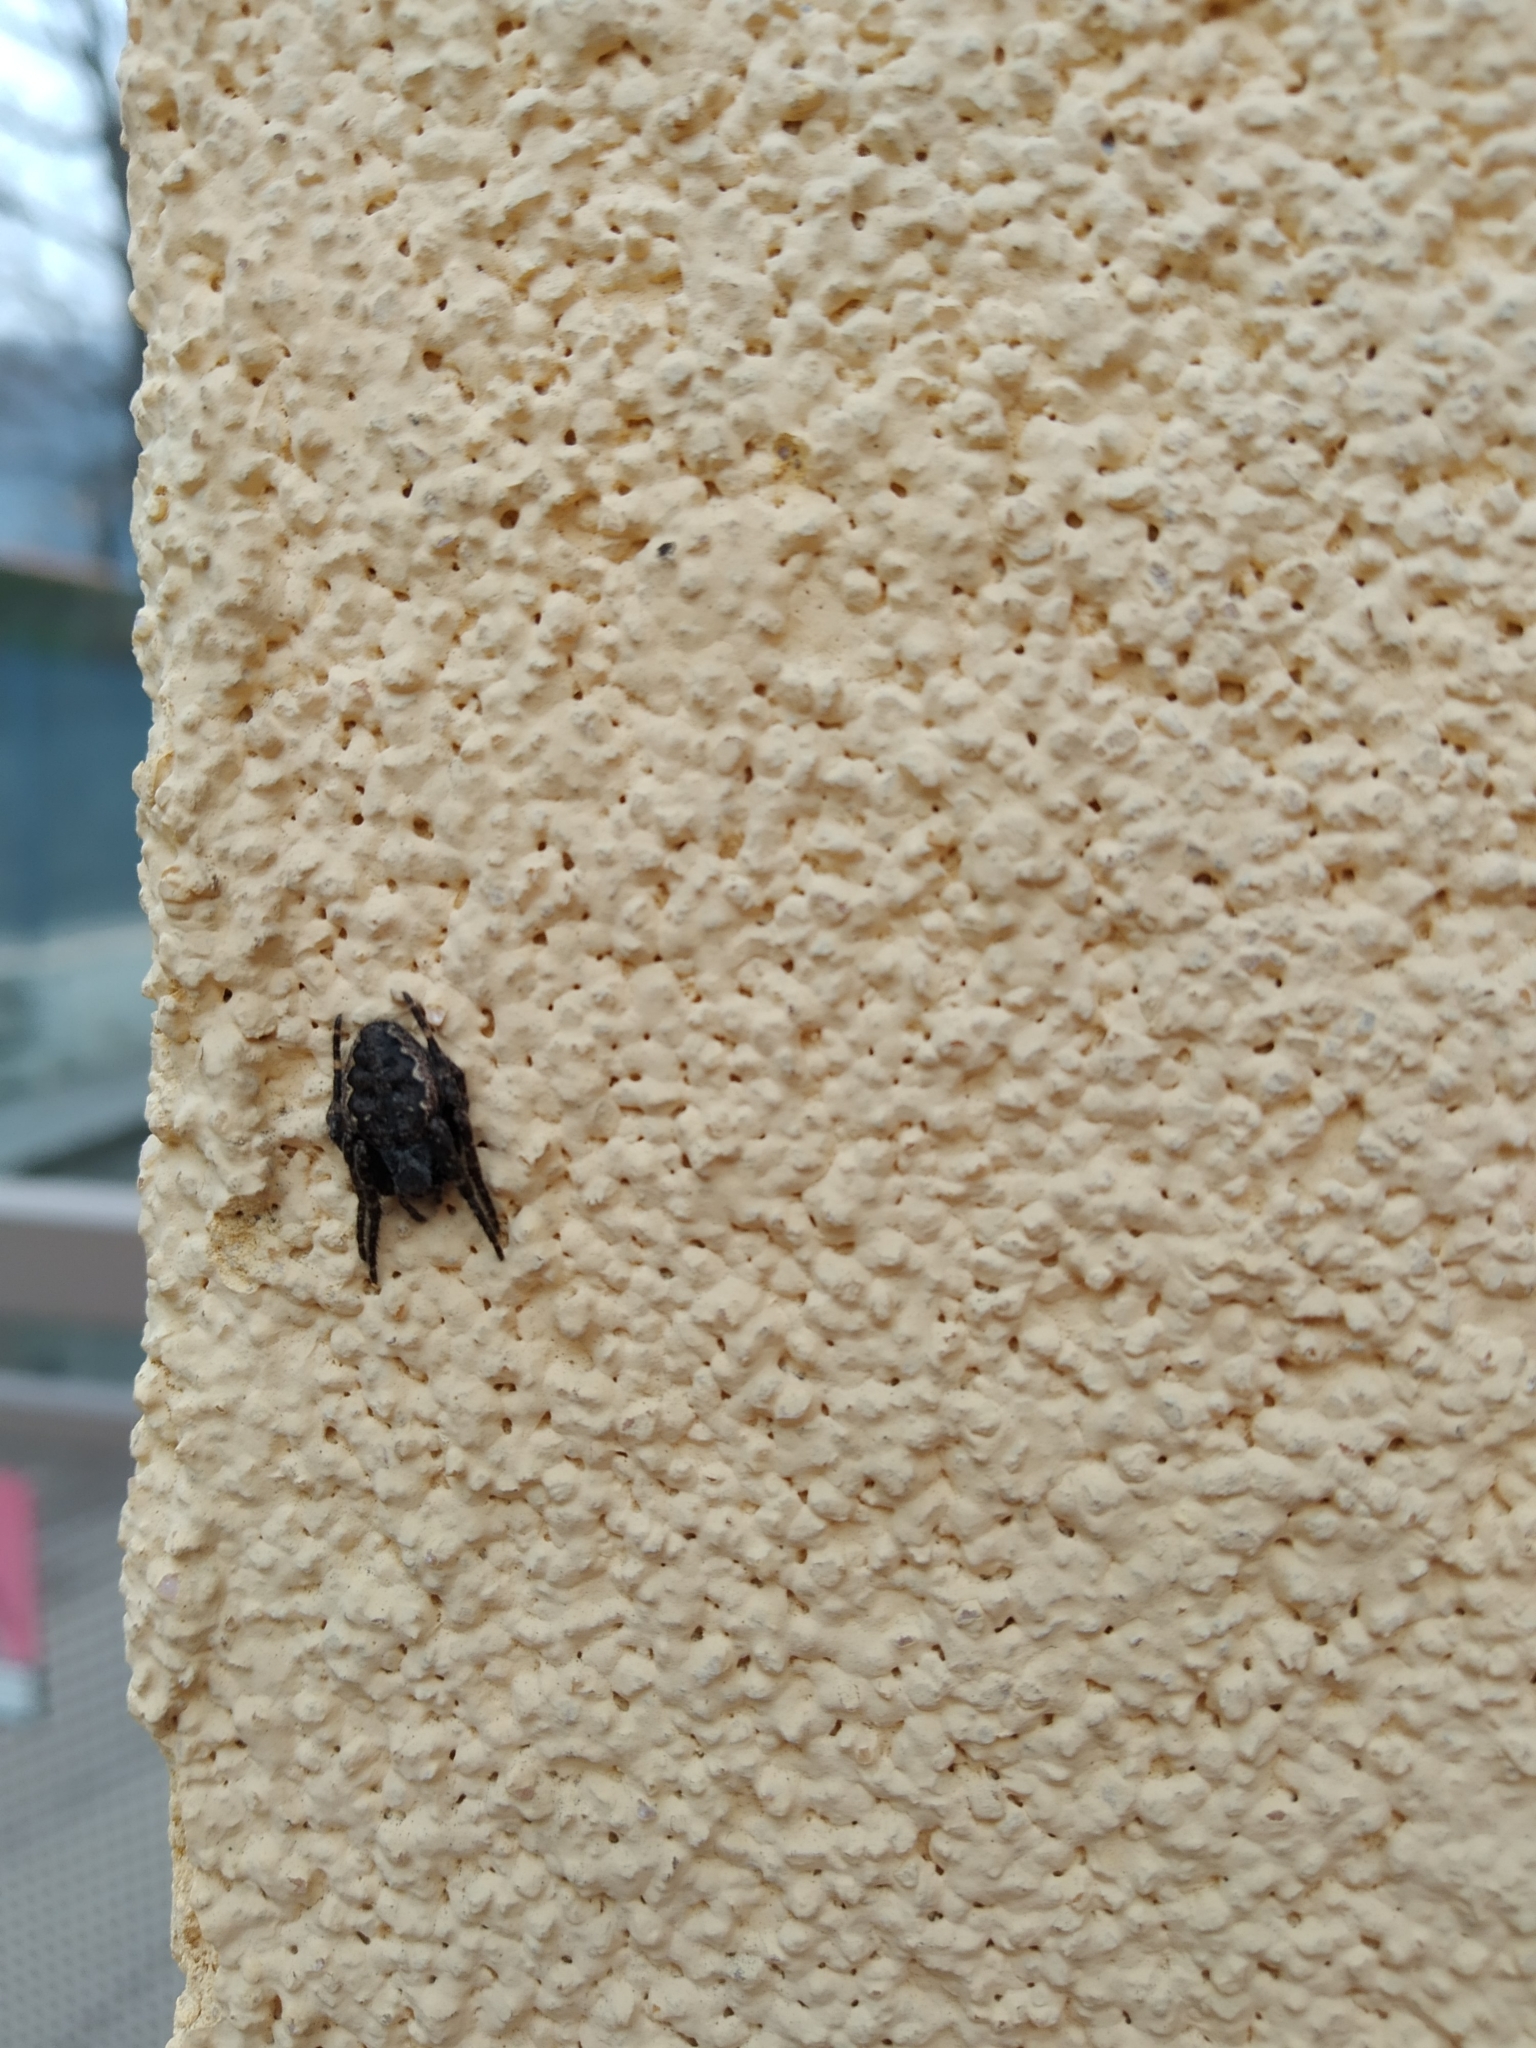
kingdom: Animalia
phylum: Arthropoda
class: Arachnida
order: Araneae
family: Araneidae
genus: Nuctenea
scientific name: Nuctenea umbratica
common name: Toad spider
